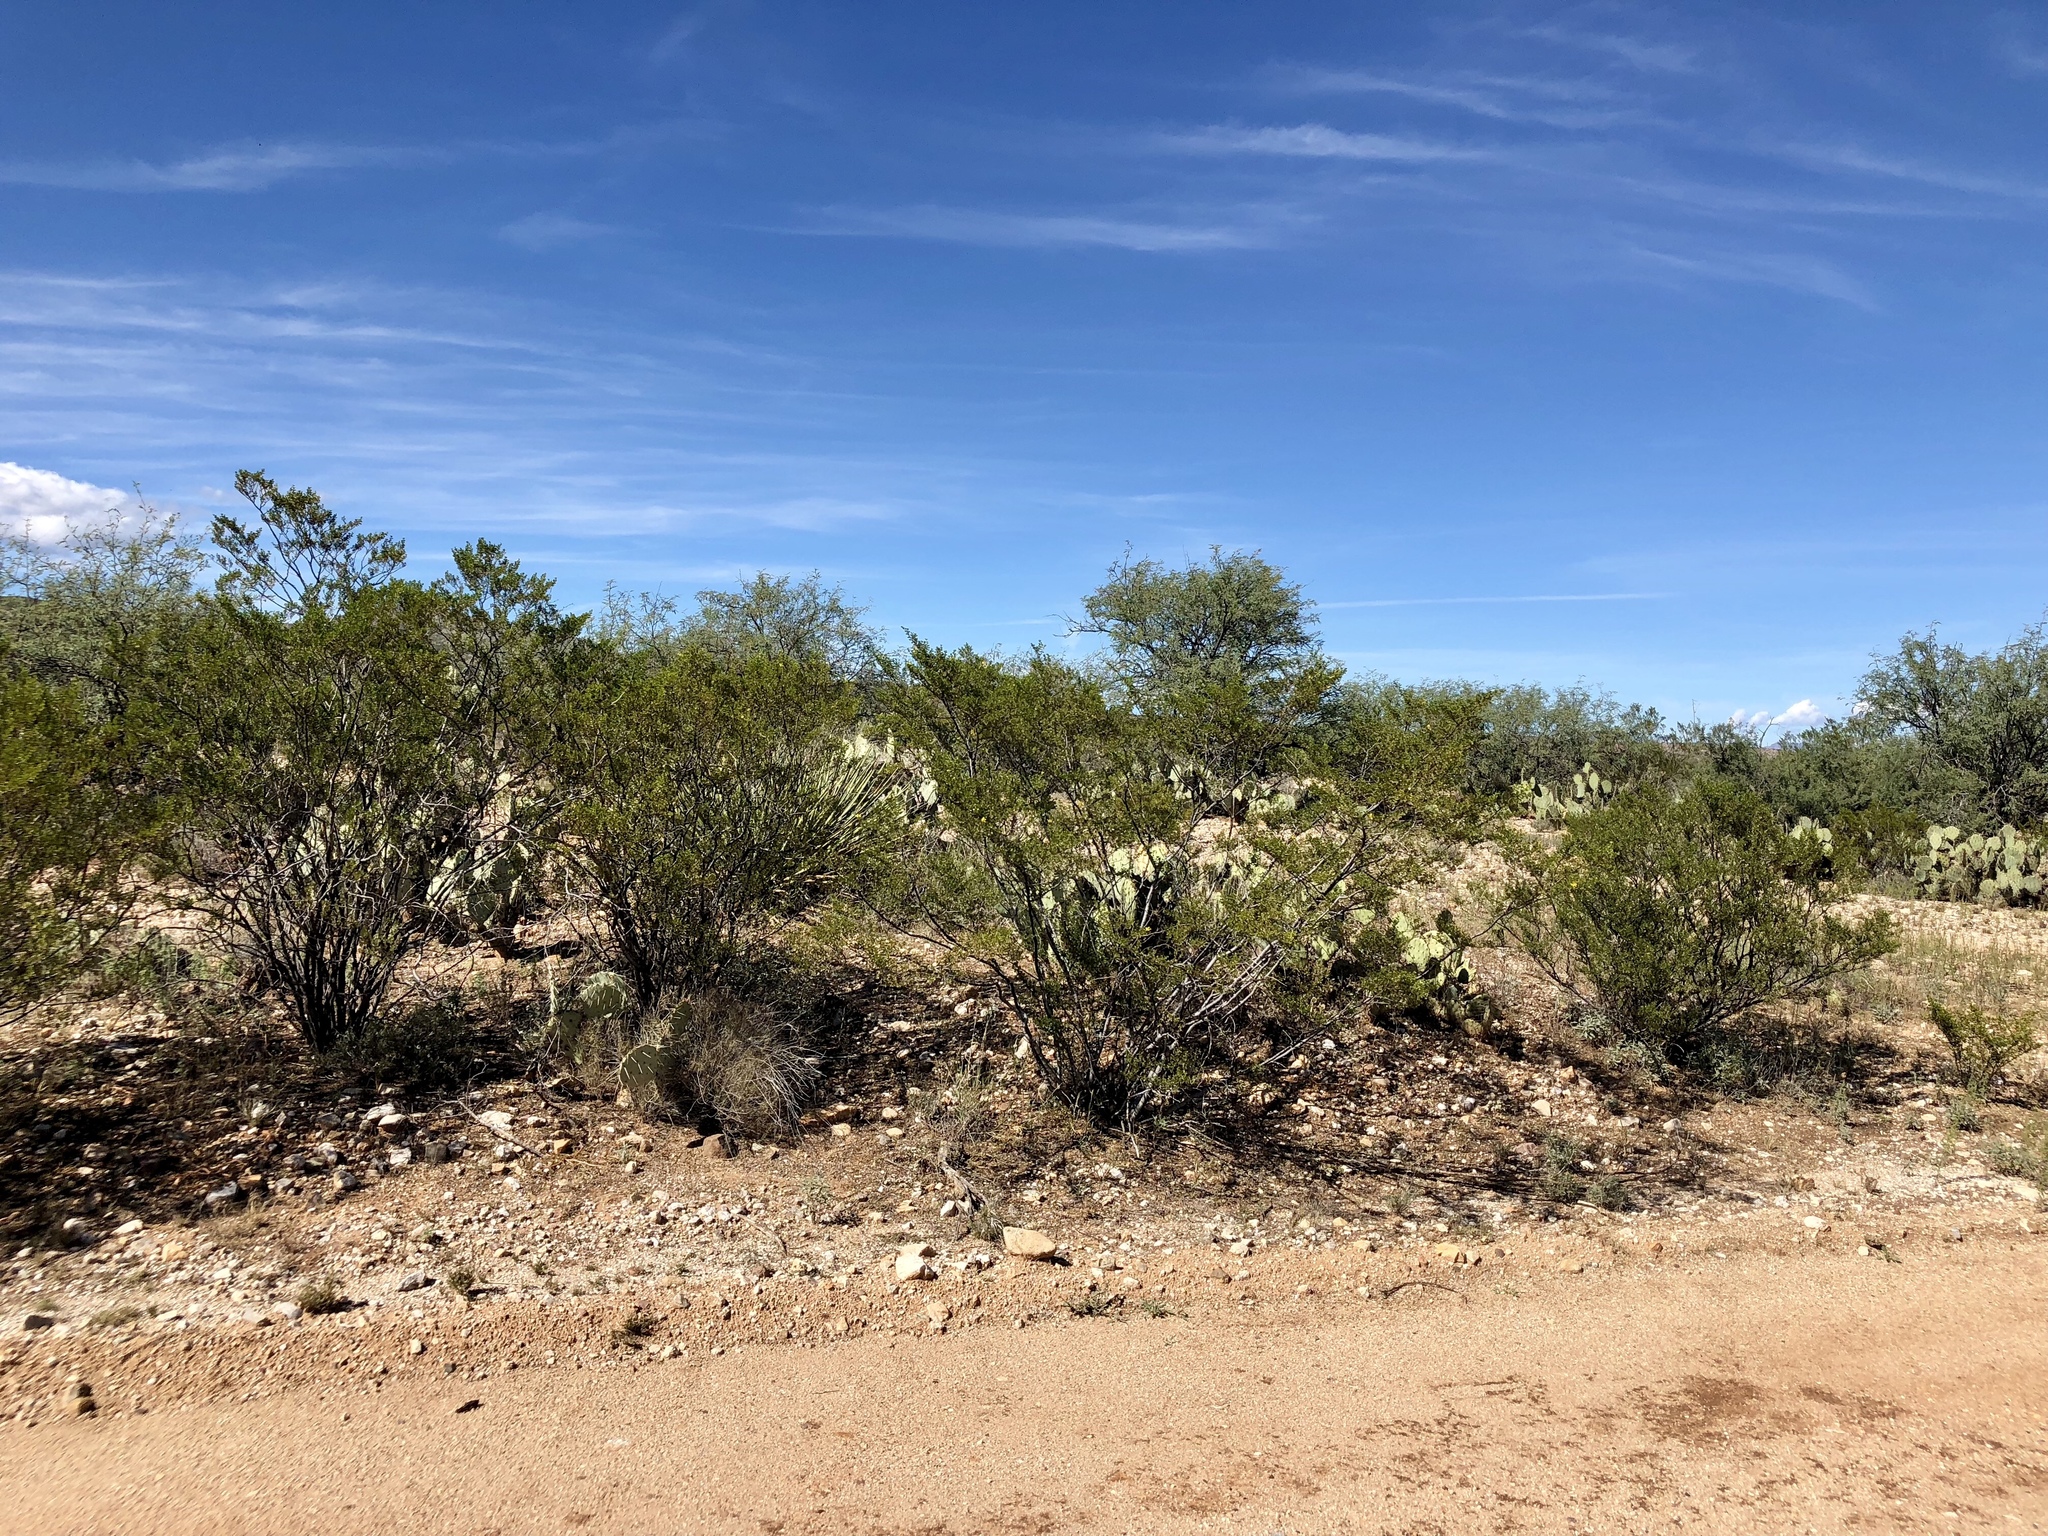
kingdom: Plantae
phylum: Tracheophyta
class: Magnoliopsida
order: Zygophyllales
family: Zygophyllaceae
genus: Larrea
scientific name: Larrea tridentata
